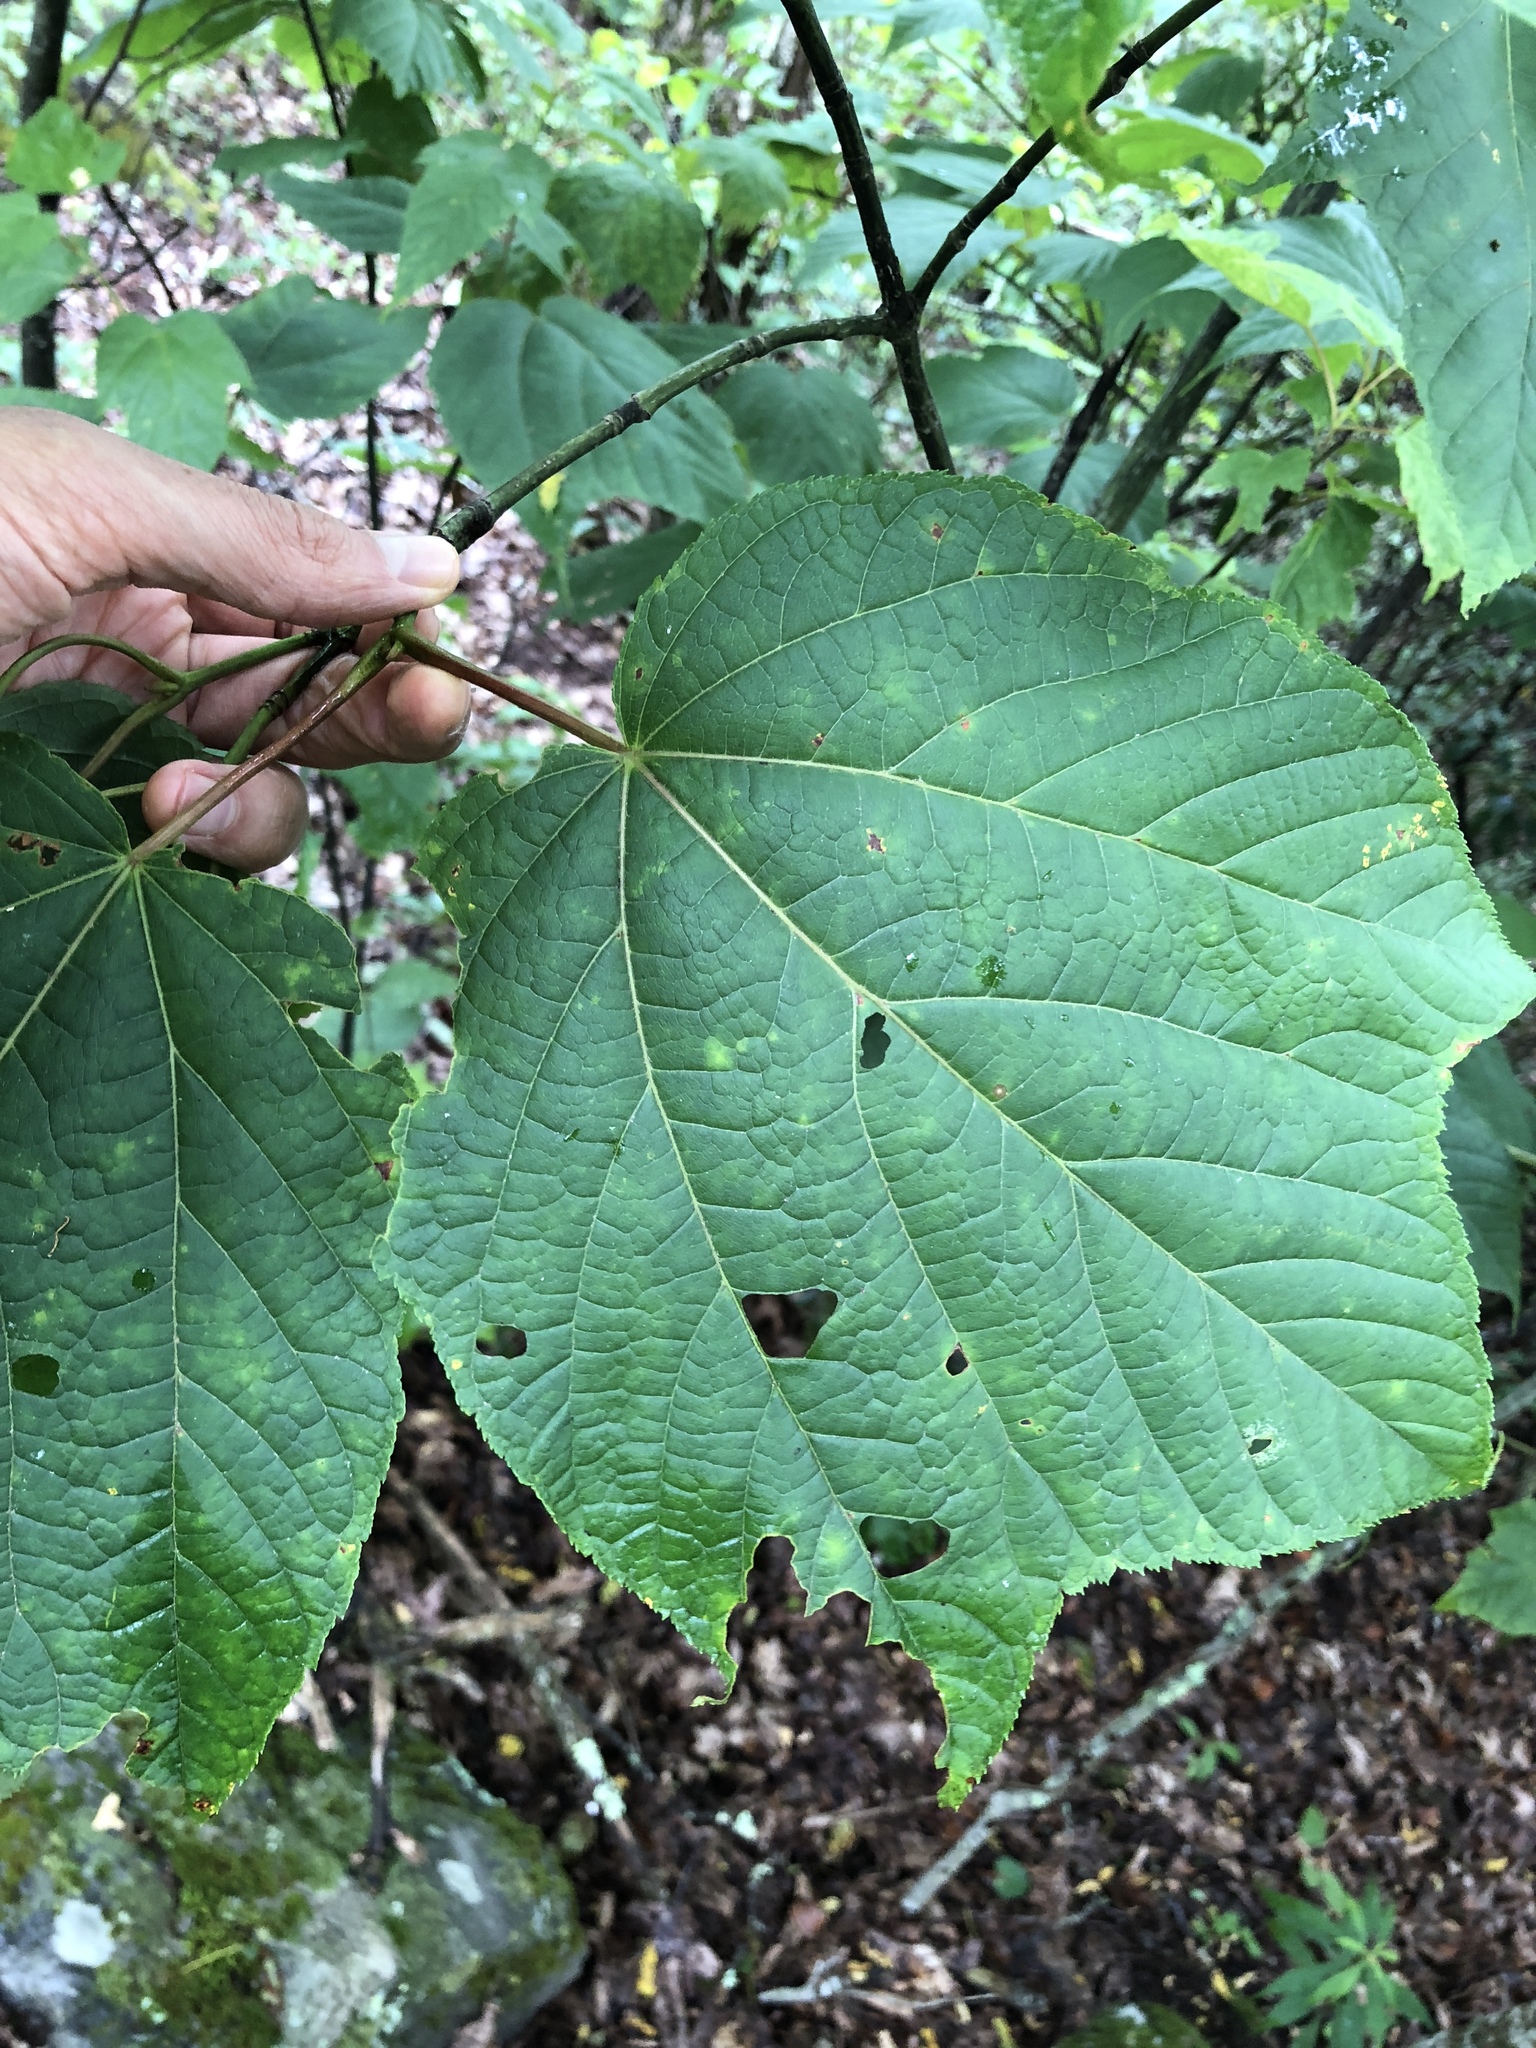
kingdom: Plantae
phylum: Tracheophyta
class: Magnoliopsida
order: Sapindales
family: Sapindaceae
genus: Acer
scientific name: Acer pensylvanicum
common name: Moosewood
